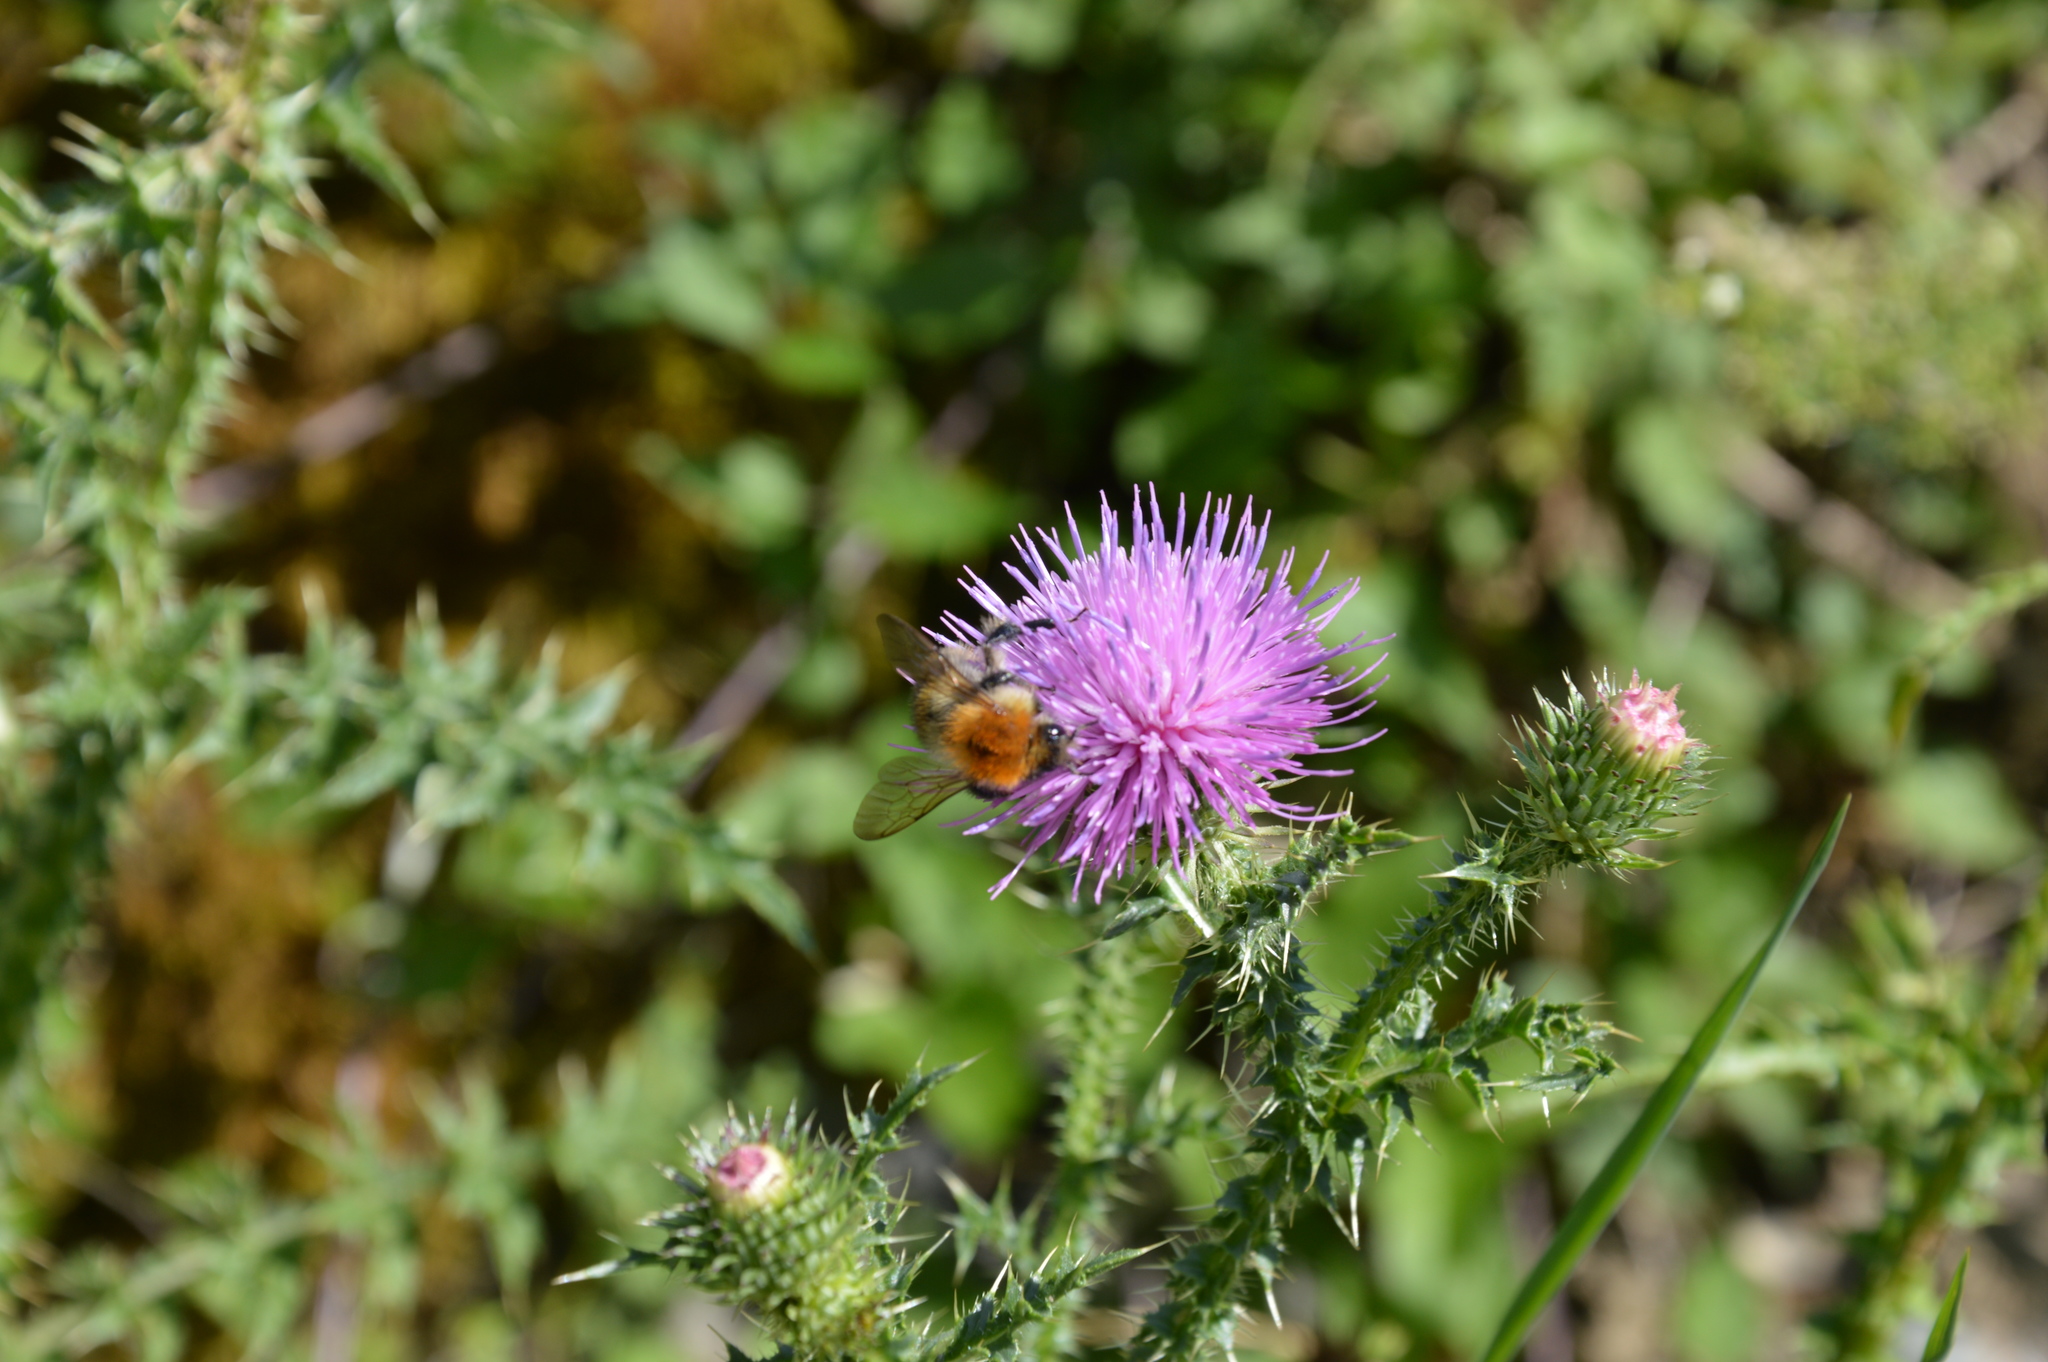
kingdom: Animalia
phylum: Arthropoda
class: Insecta
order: Hymenoptera
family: Apidae
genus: Bombus
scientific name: Bombus pascuorum
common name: Common carder bee
